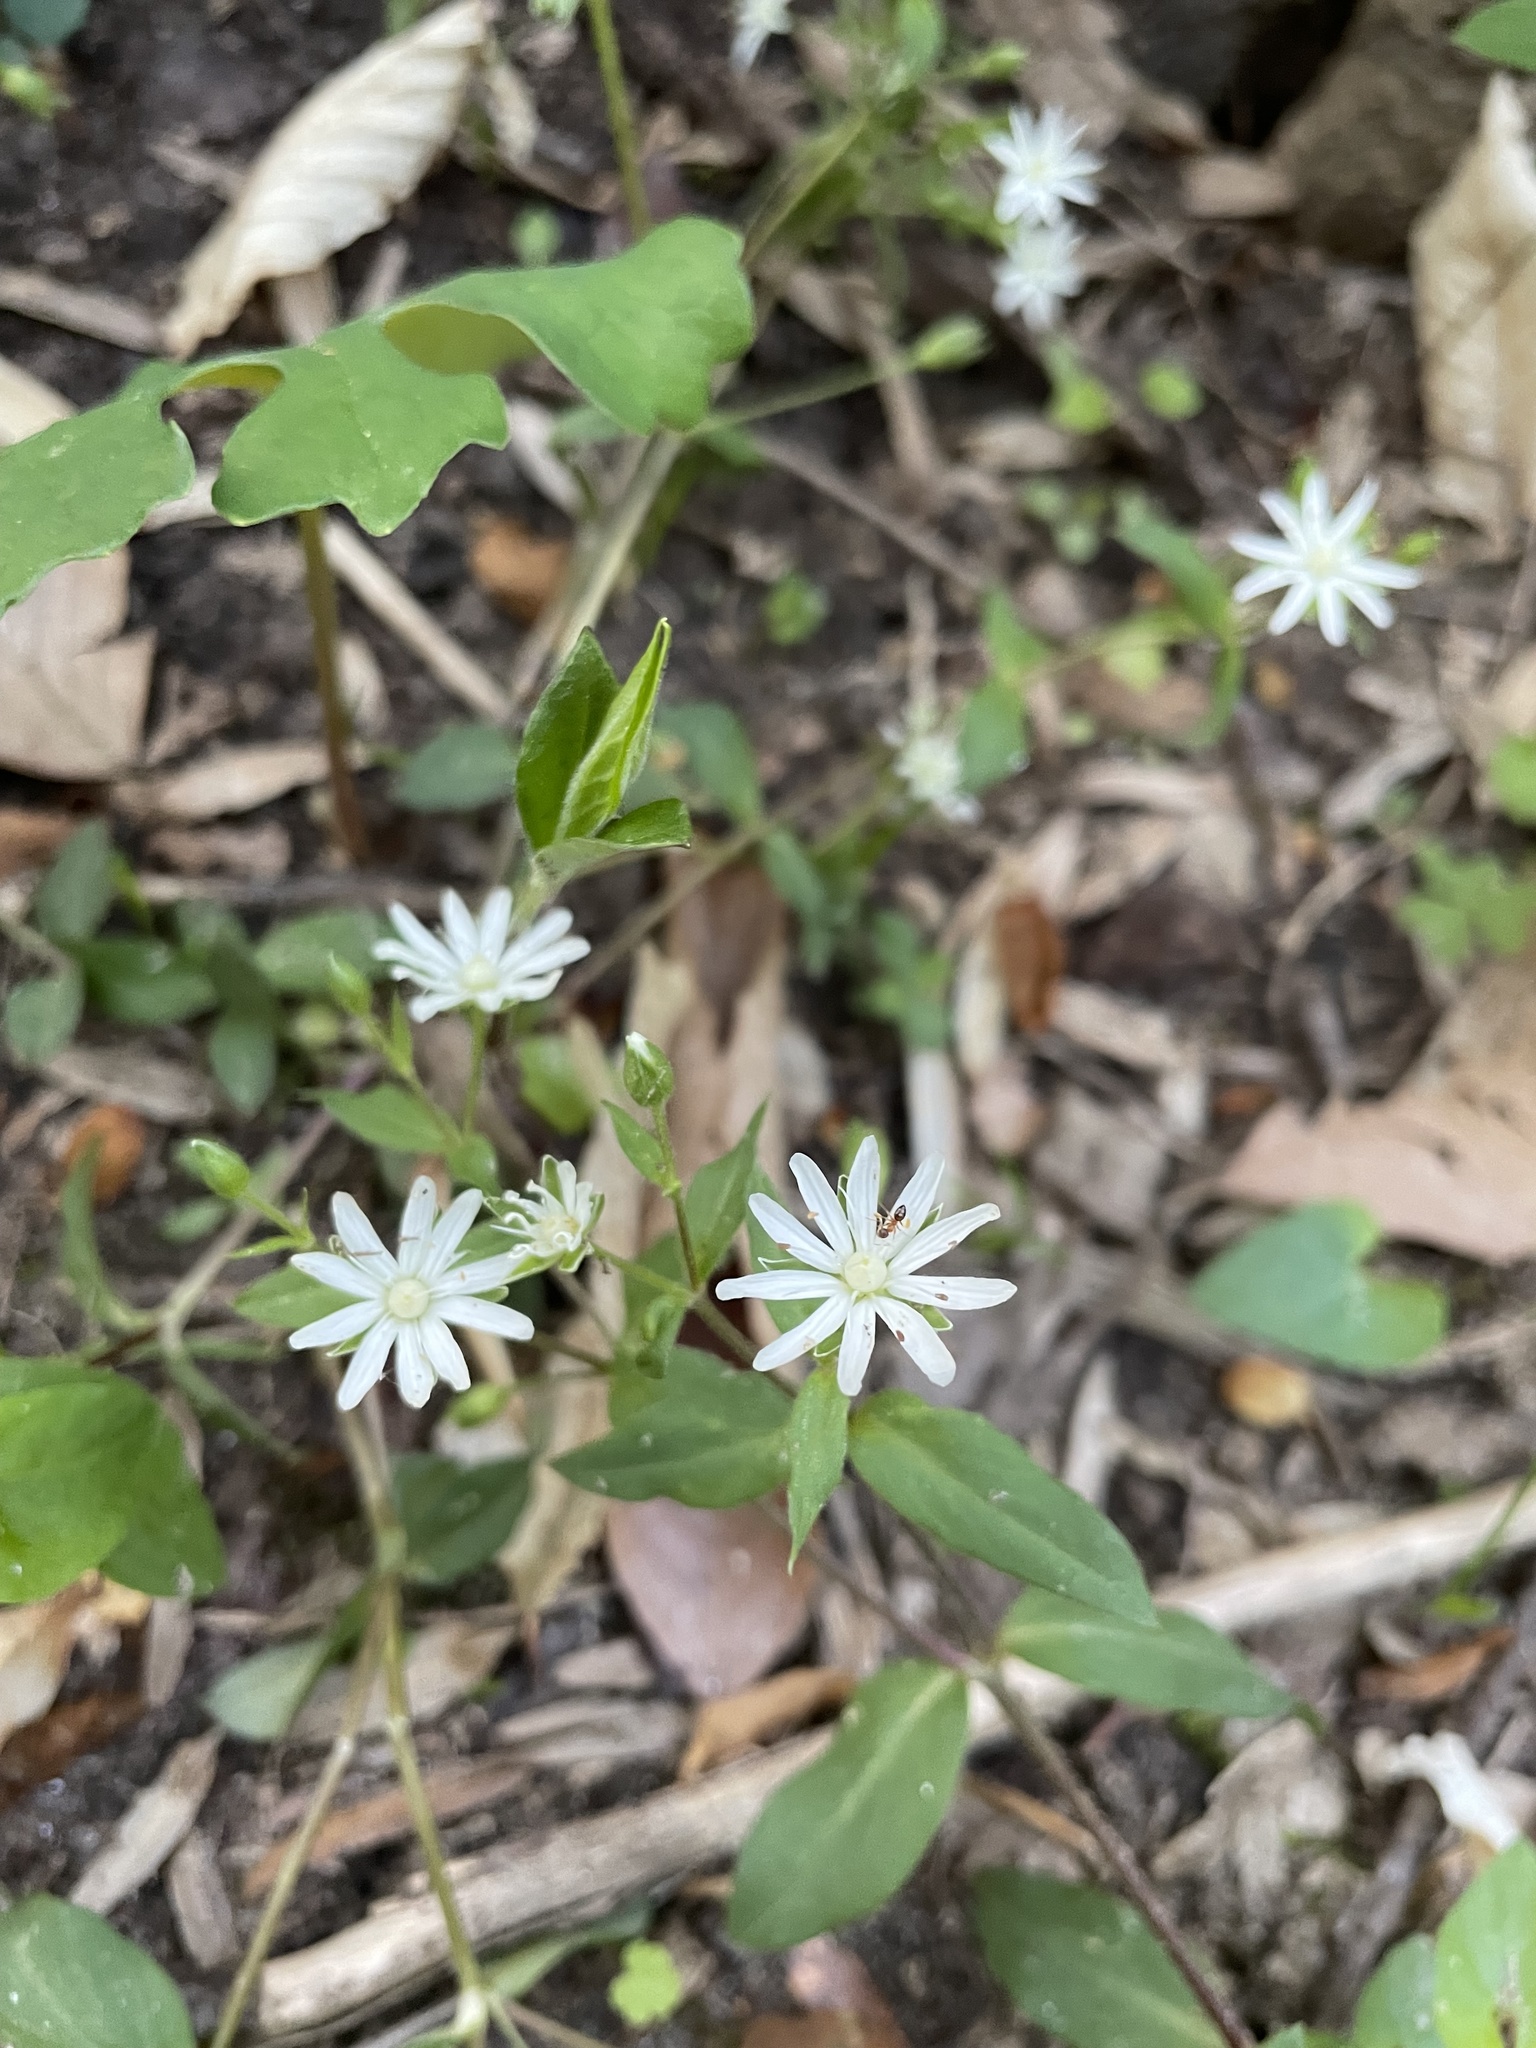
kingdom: Plantae
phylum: Tracheophyta
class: Magnoliopsida
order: Caryophyllales
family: Caryophyllaceae
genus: Stellaria
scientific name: Stellaria pubera
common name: Star chickweed
